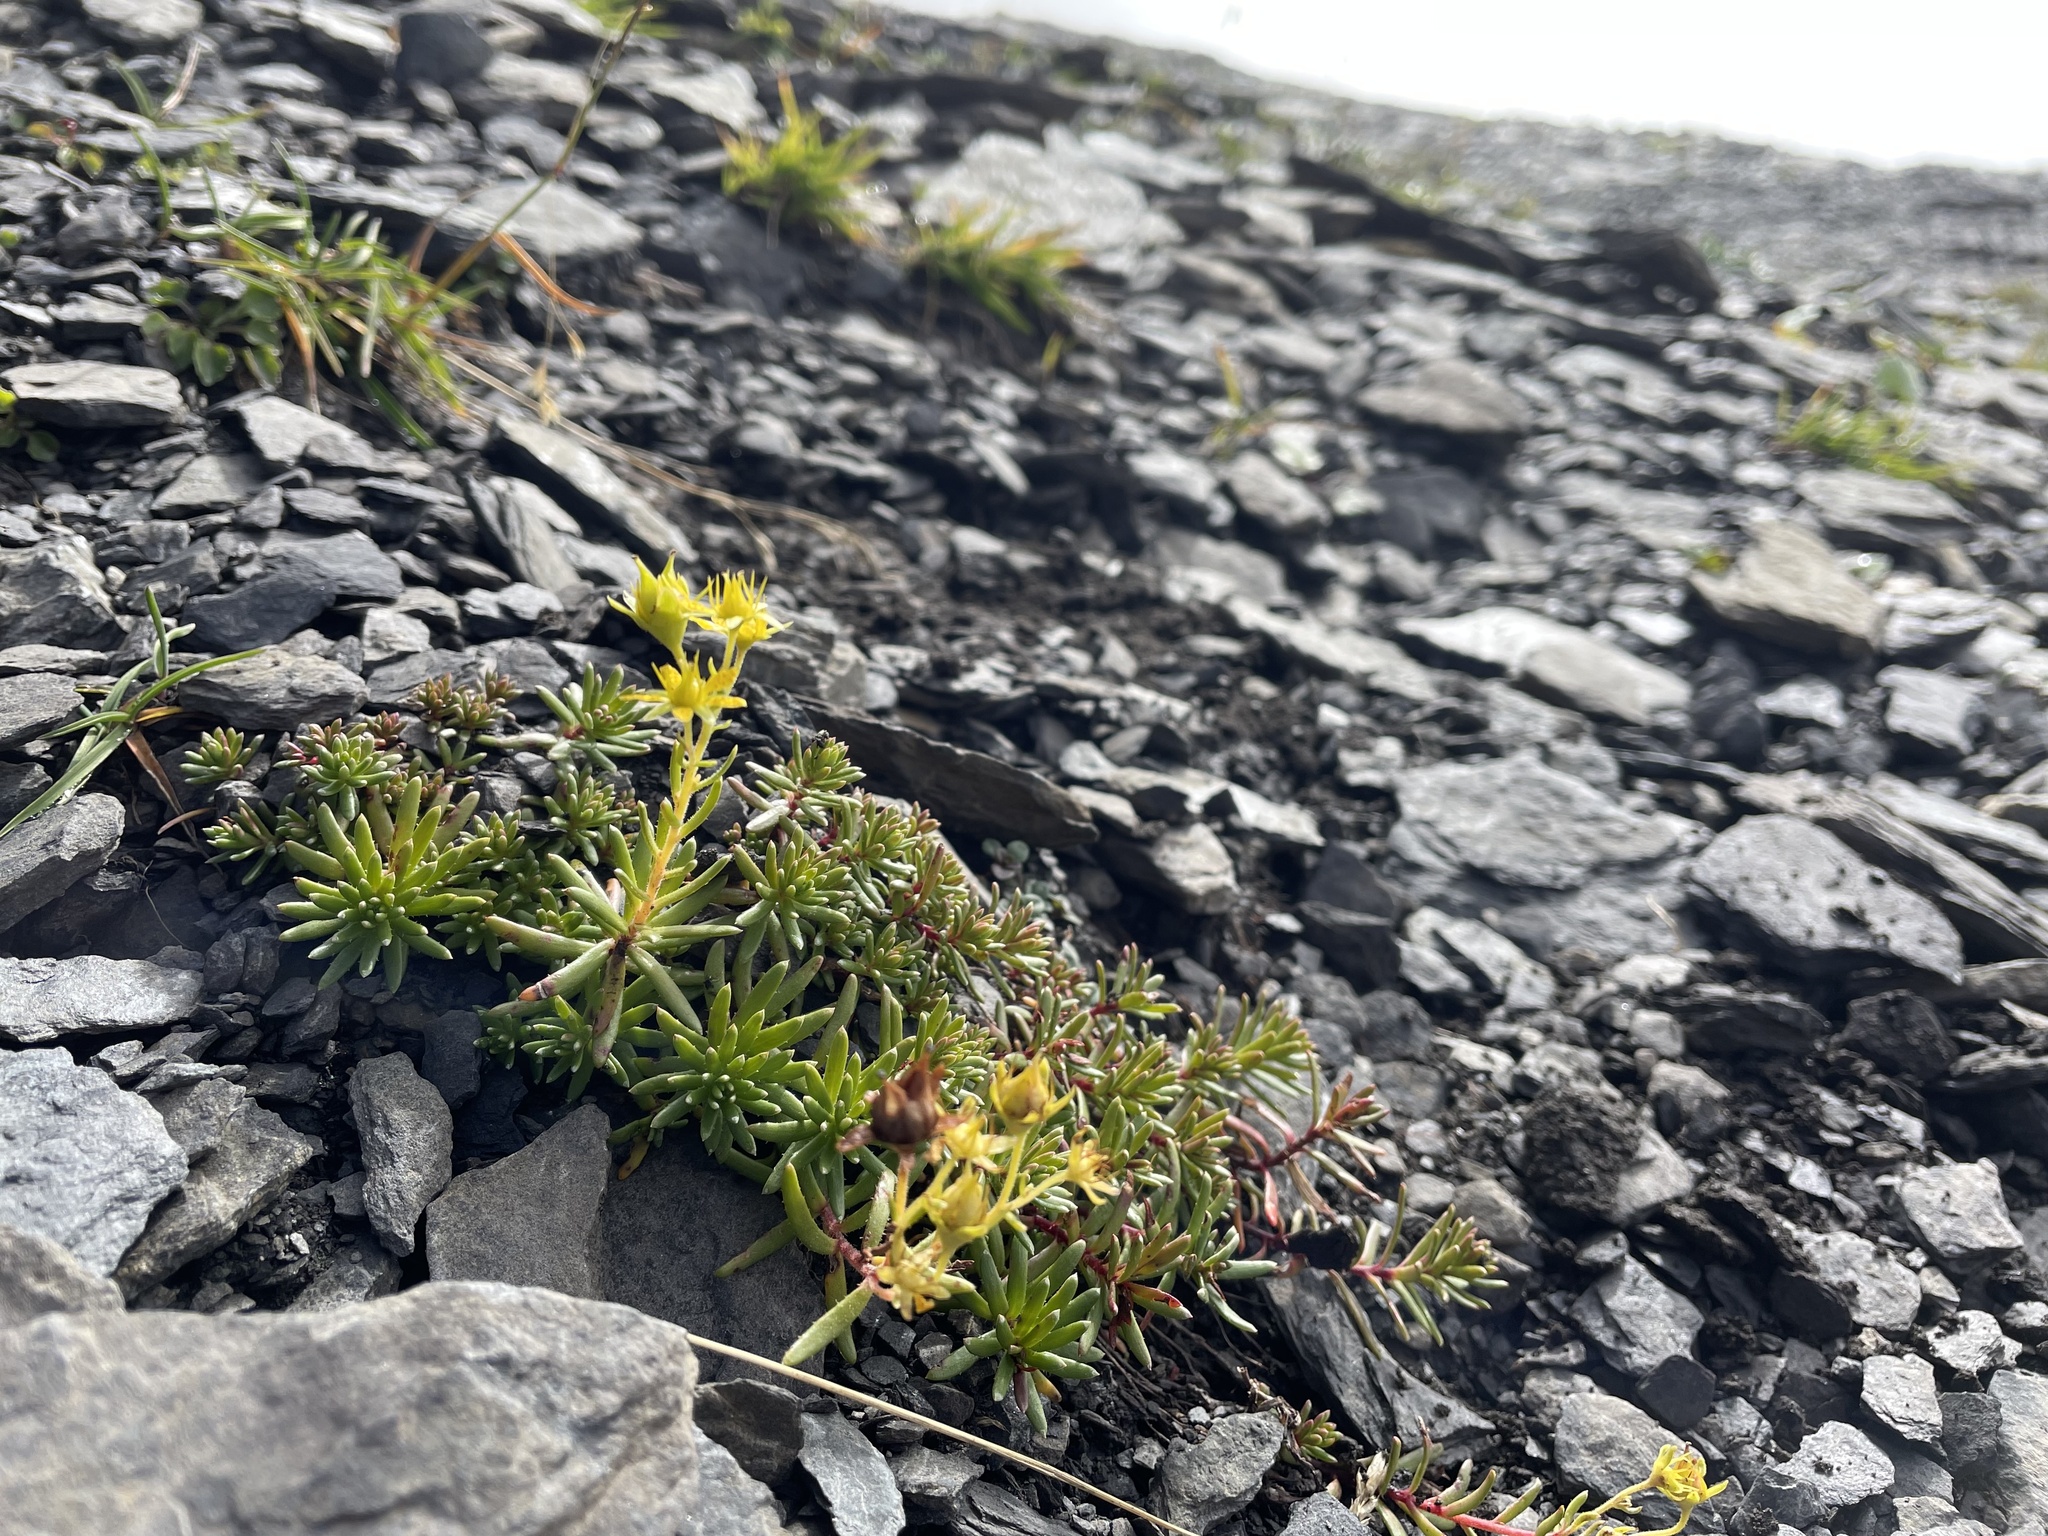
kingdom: Plantae
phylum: Tracheophyta
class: Magnoliopsida
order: Saxifragales
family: Saxifragaceae
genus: Saxifraga
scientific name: Saxifraga aizoides
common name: Yellow mountain saxifrage
